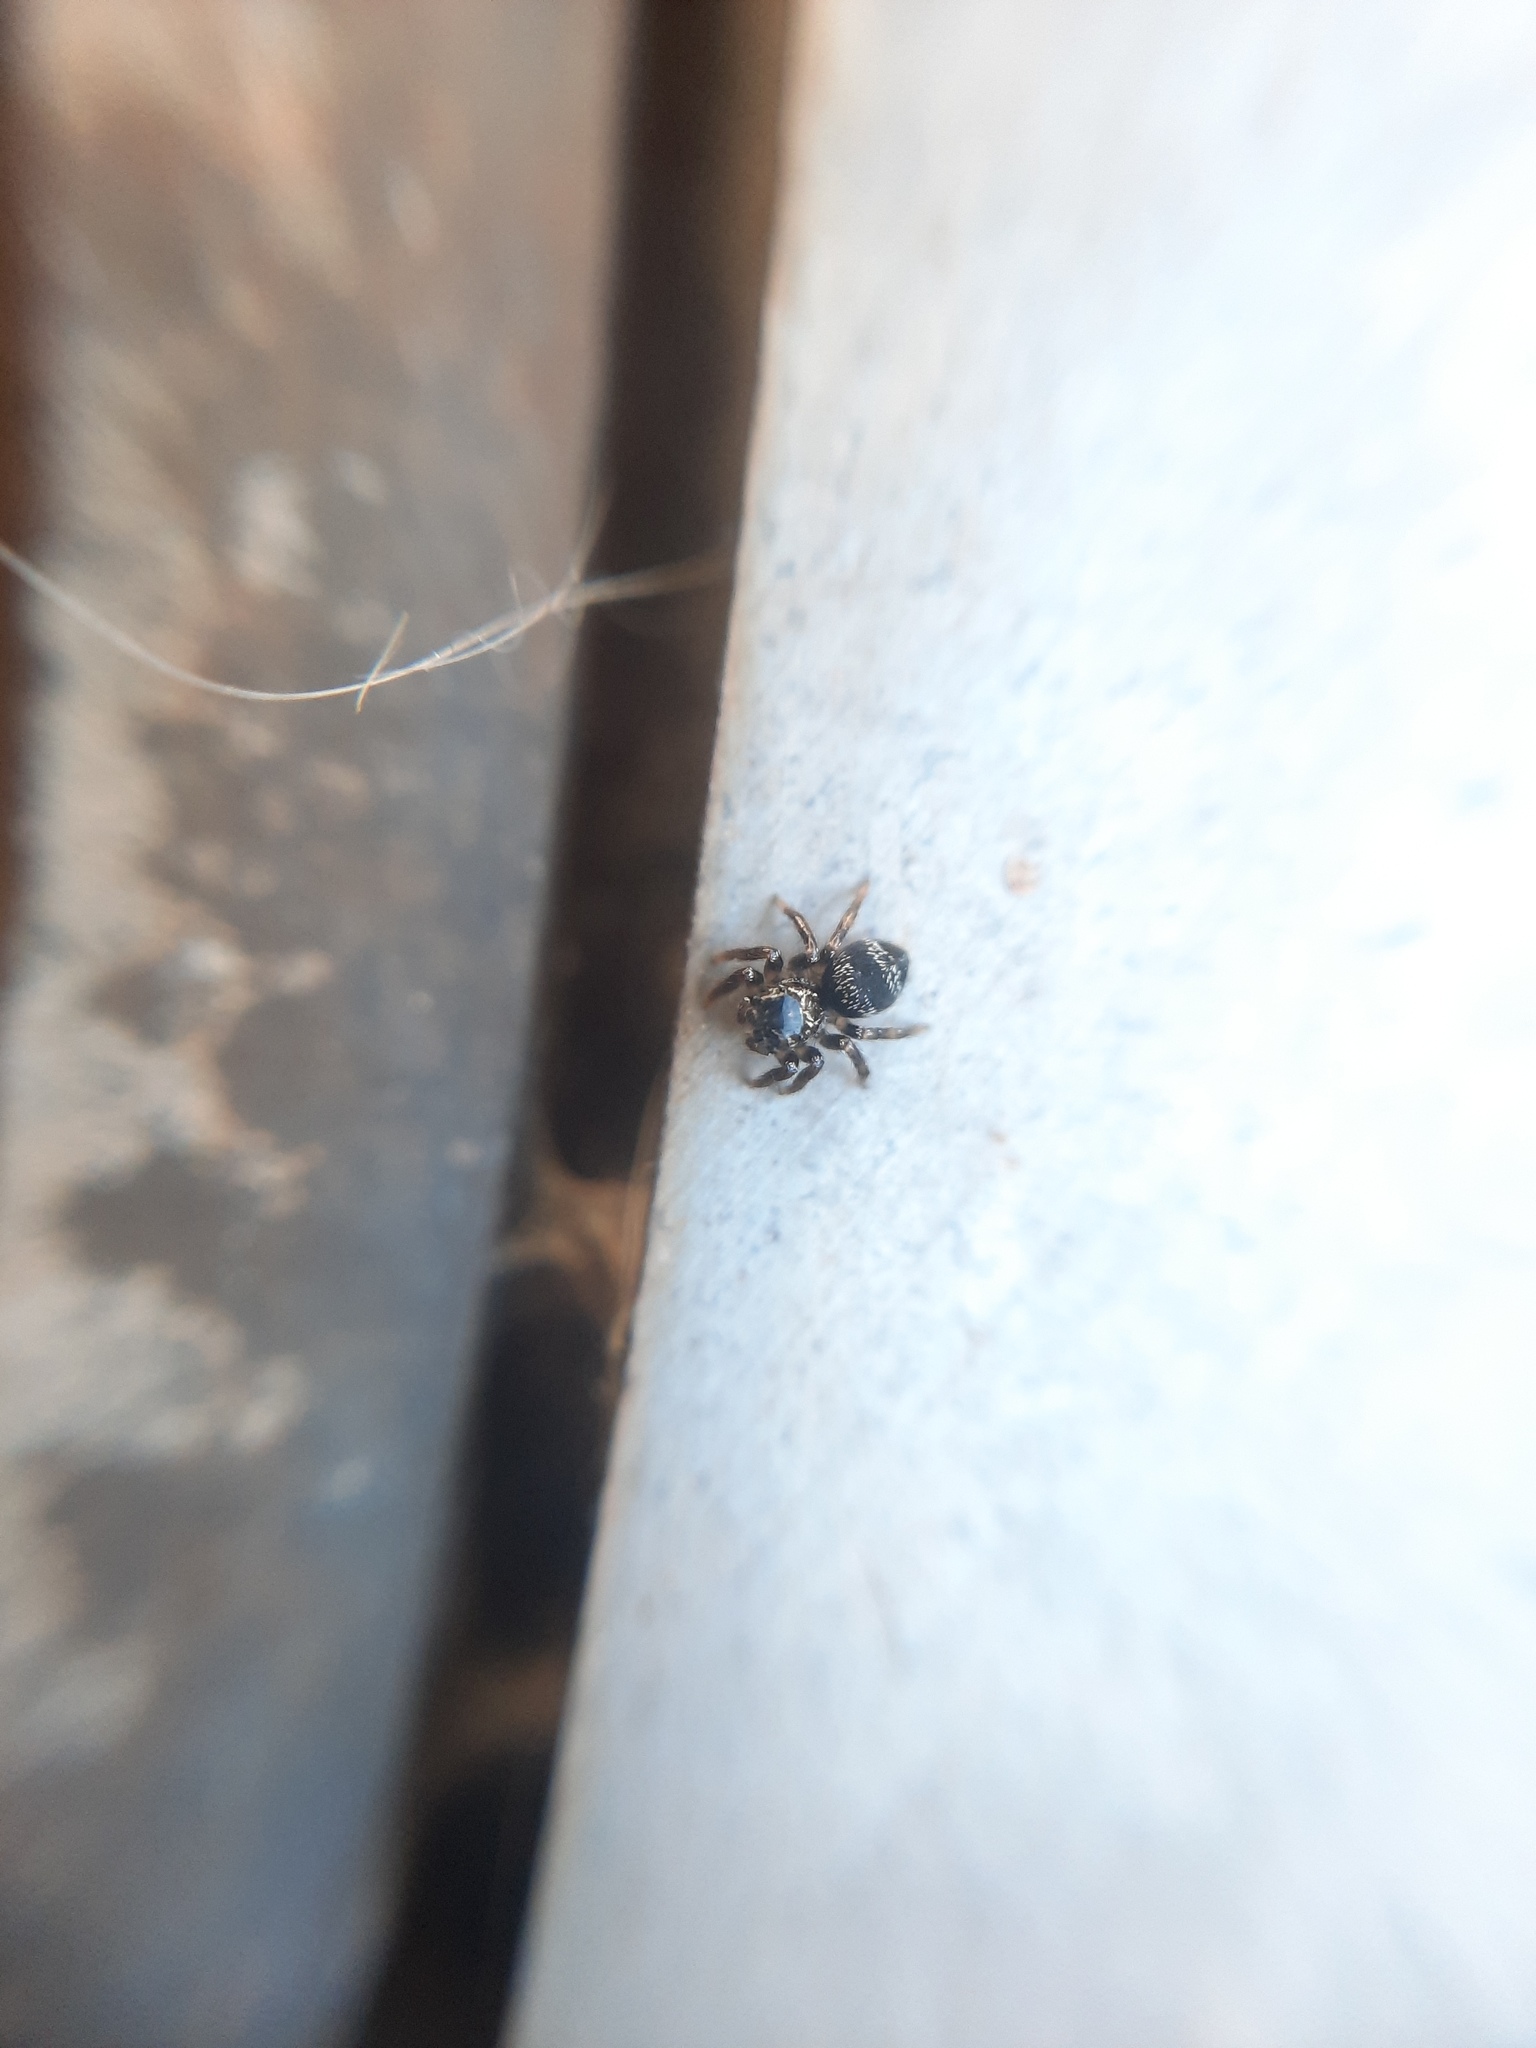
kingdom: Animalia
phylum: Arthropoda
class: Arachnida
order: Araneae
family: Salticidae
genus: Corythalia
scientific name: Corythalia conferta
